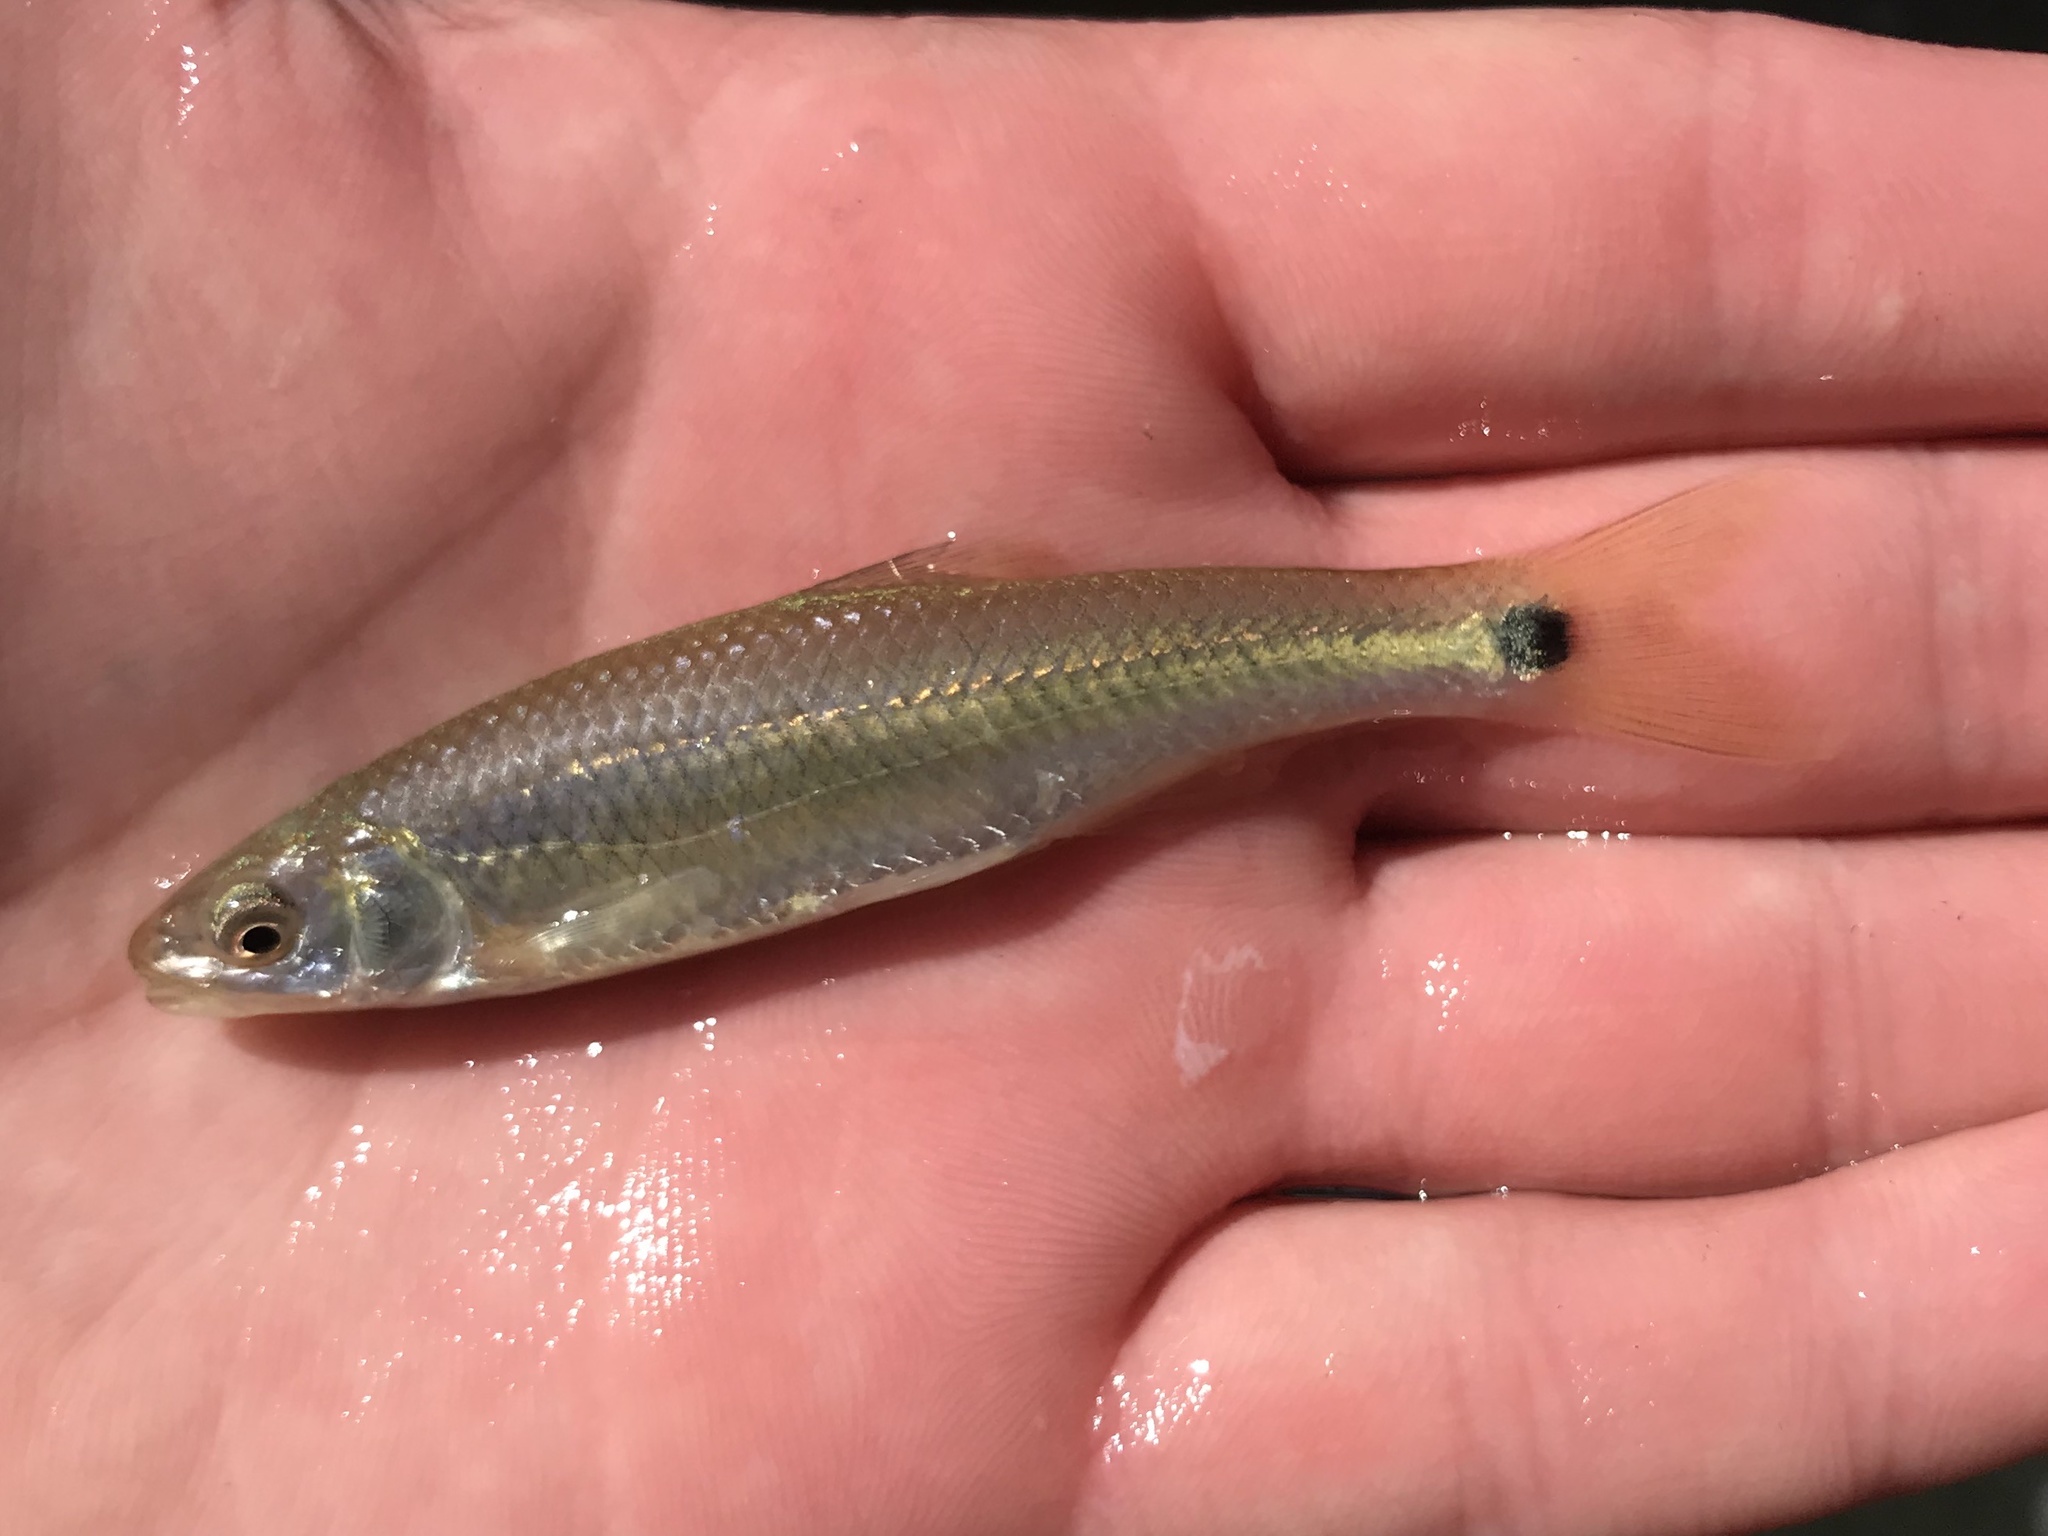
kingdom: Animalia
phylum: Chordata
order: Cypriniformes
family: Cyprinidae
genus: Cyprinella
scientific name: Cyprinella venusta
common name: Blacktail shiner
